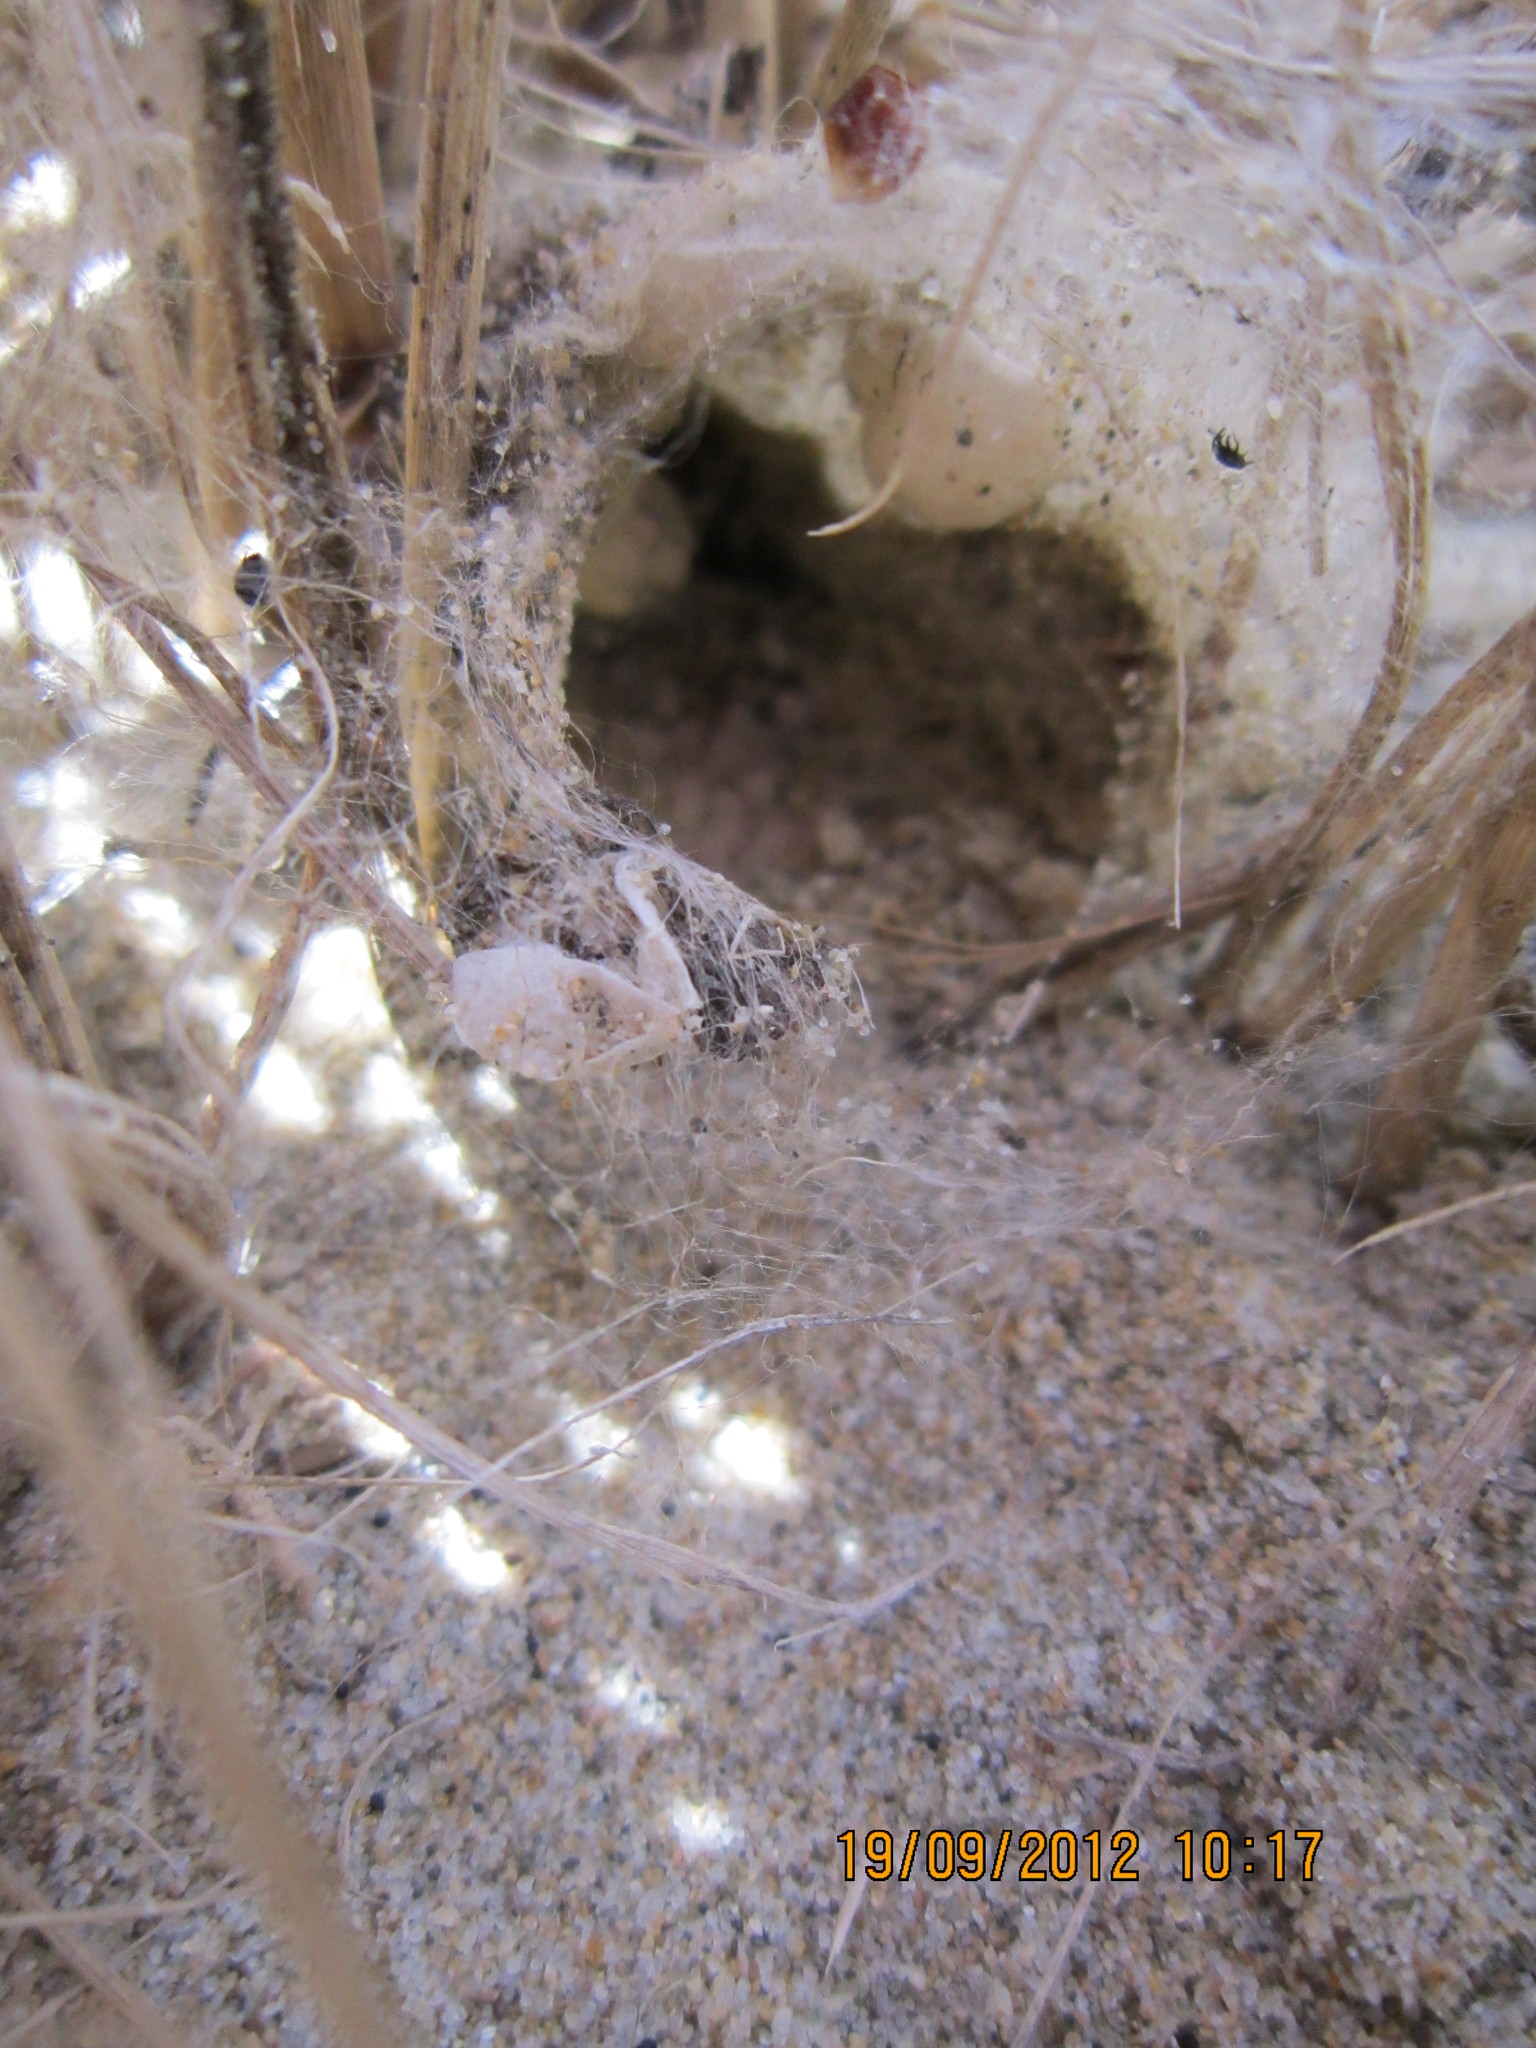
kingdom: Animalia
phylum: Arthropoda
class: Arachnida
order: Araneae
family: Theridiidae
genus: Latrodectus
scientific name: Latrodectus katipo
